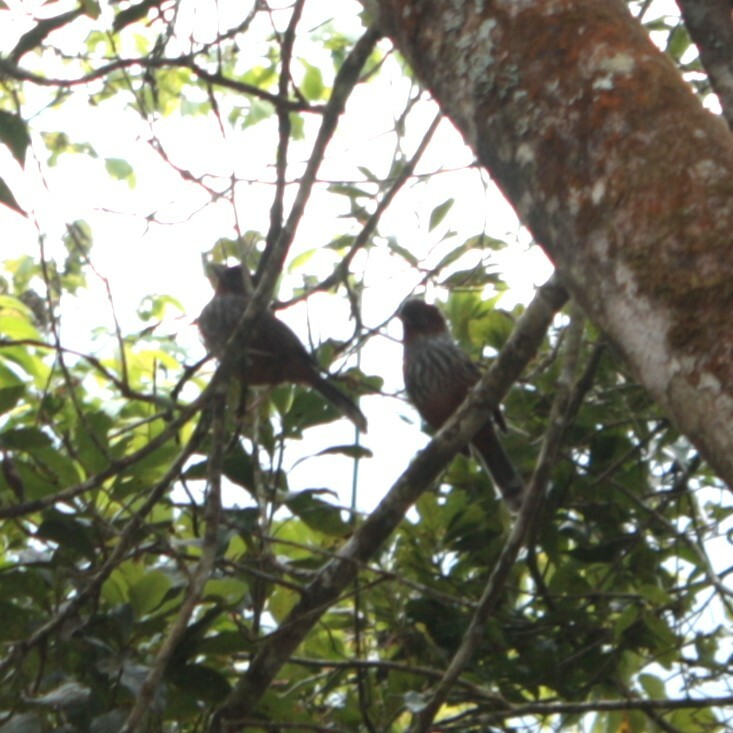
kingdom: Animalia
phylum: Chordata
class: Aves
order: Passeriformes
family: Leiothrichidae
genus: Actinodura
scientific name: Actinodura morrisoniana
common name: Taiwan barwing
